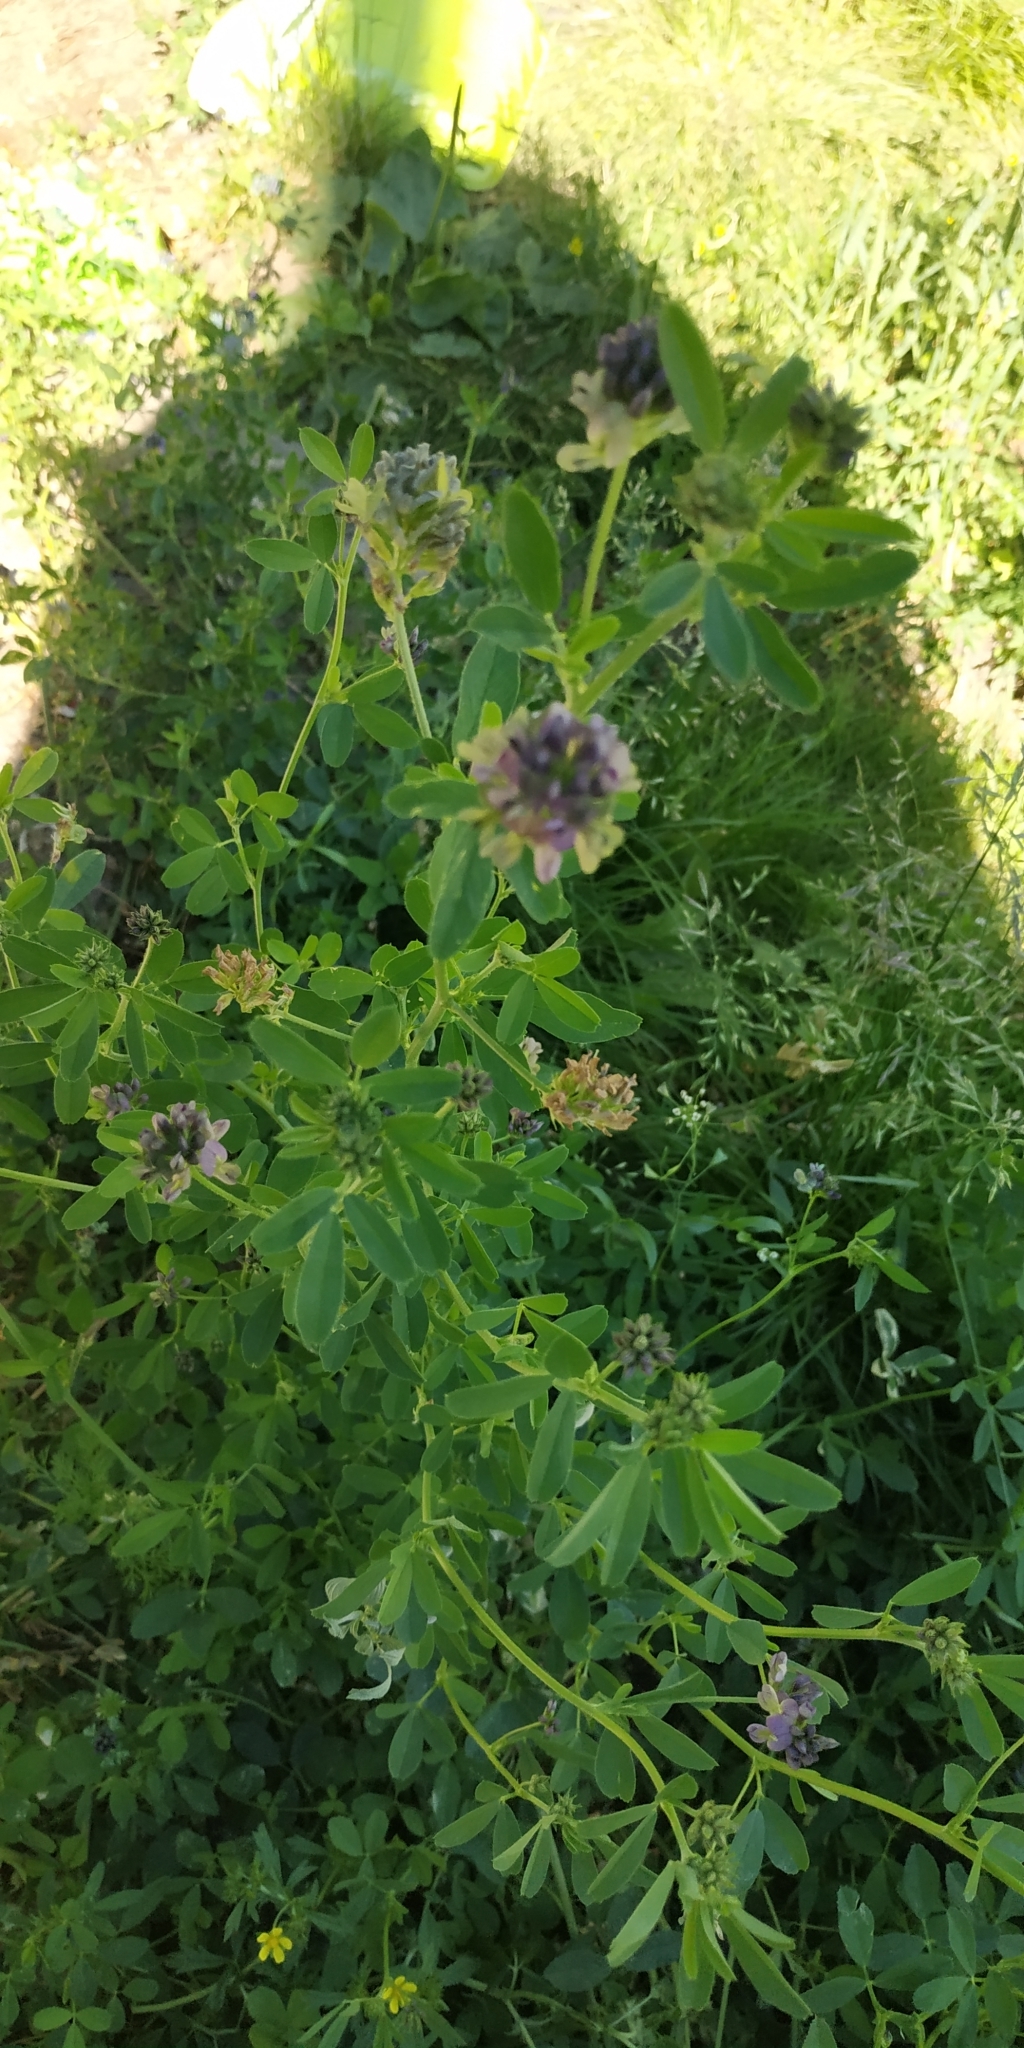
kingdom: Plantae
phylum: Tracheophyta
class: Magnoliopsida
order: Fabales
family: Fabaceae
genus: Medicago
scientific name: Medicago varia
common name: Sand lucerne
